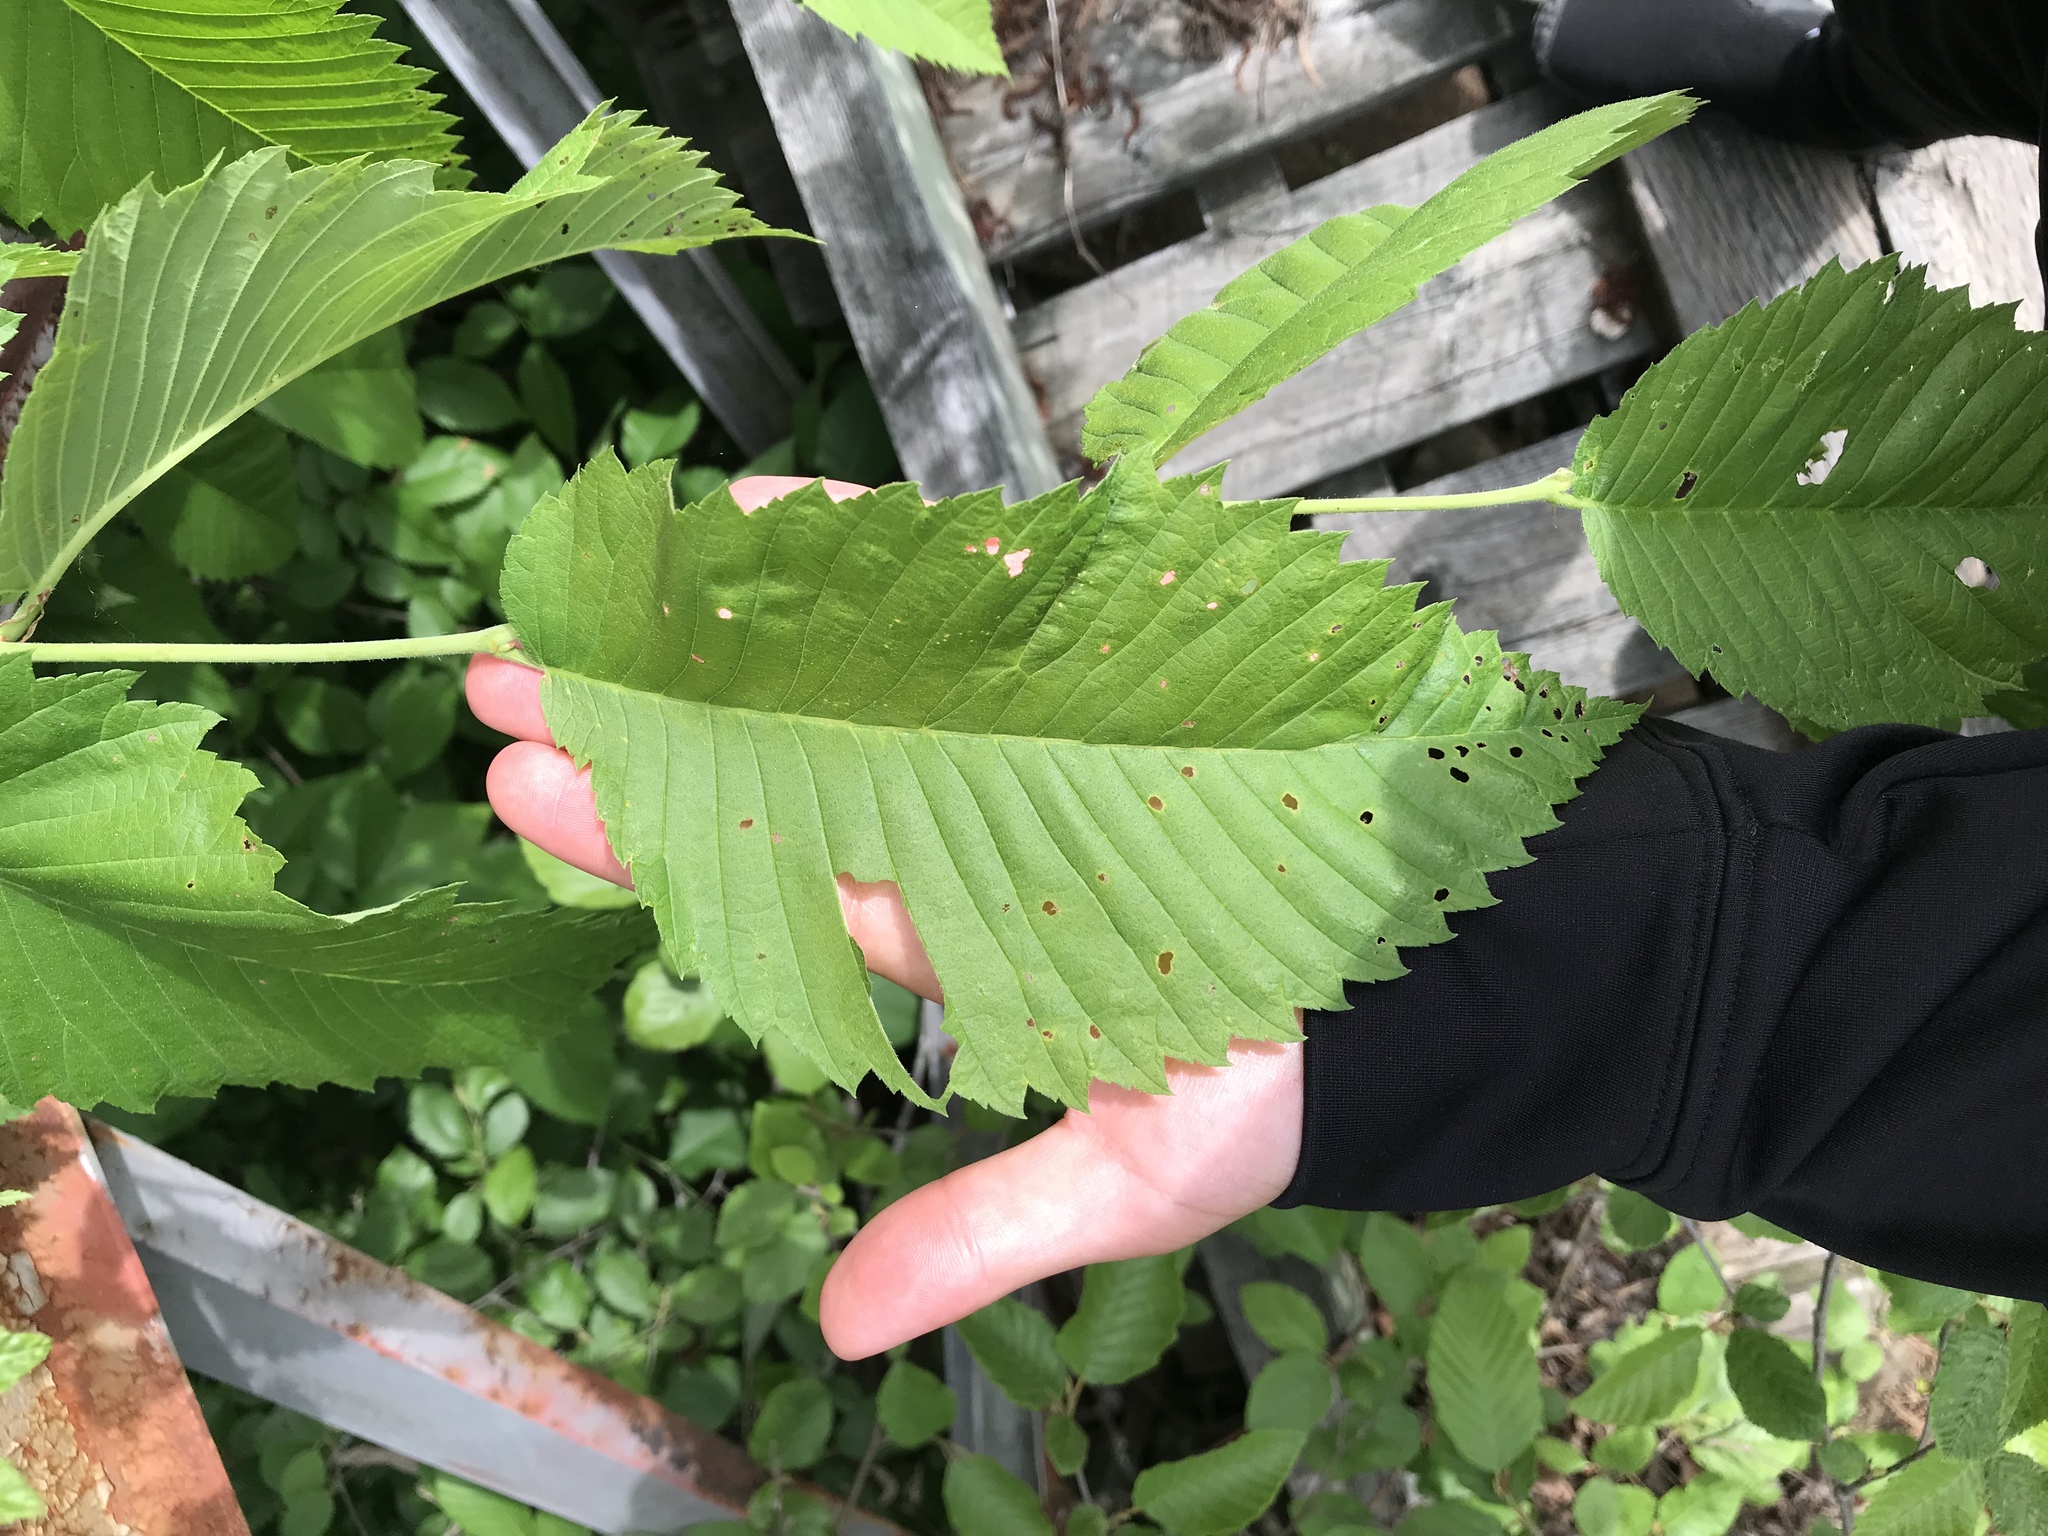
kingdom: Plantae
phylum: Tracheophyta
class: Magnoliopsida
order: Rosales
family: Ulmaceae
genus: Ulmus
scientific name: Ulmus americana
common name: American elm
